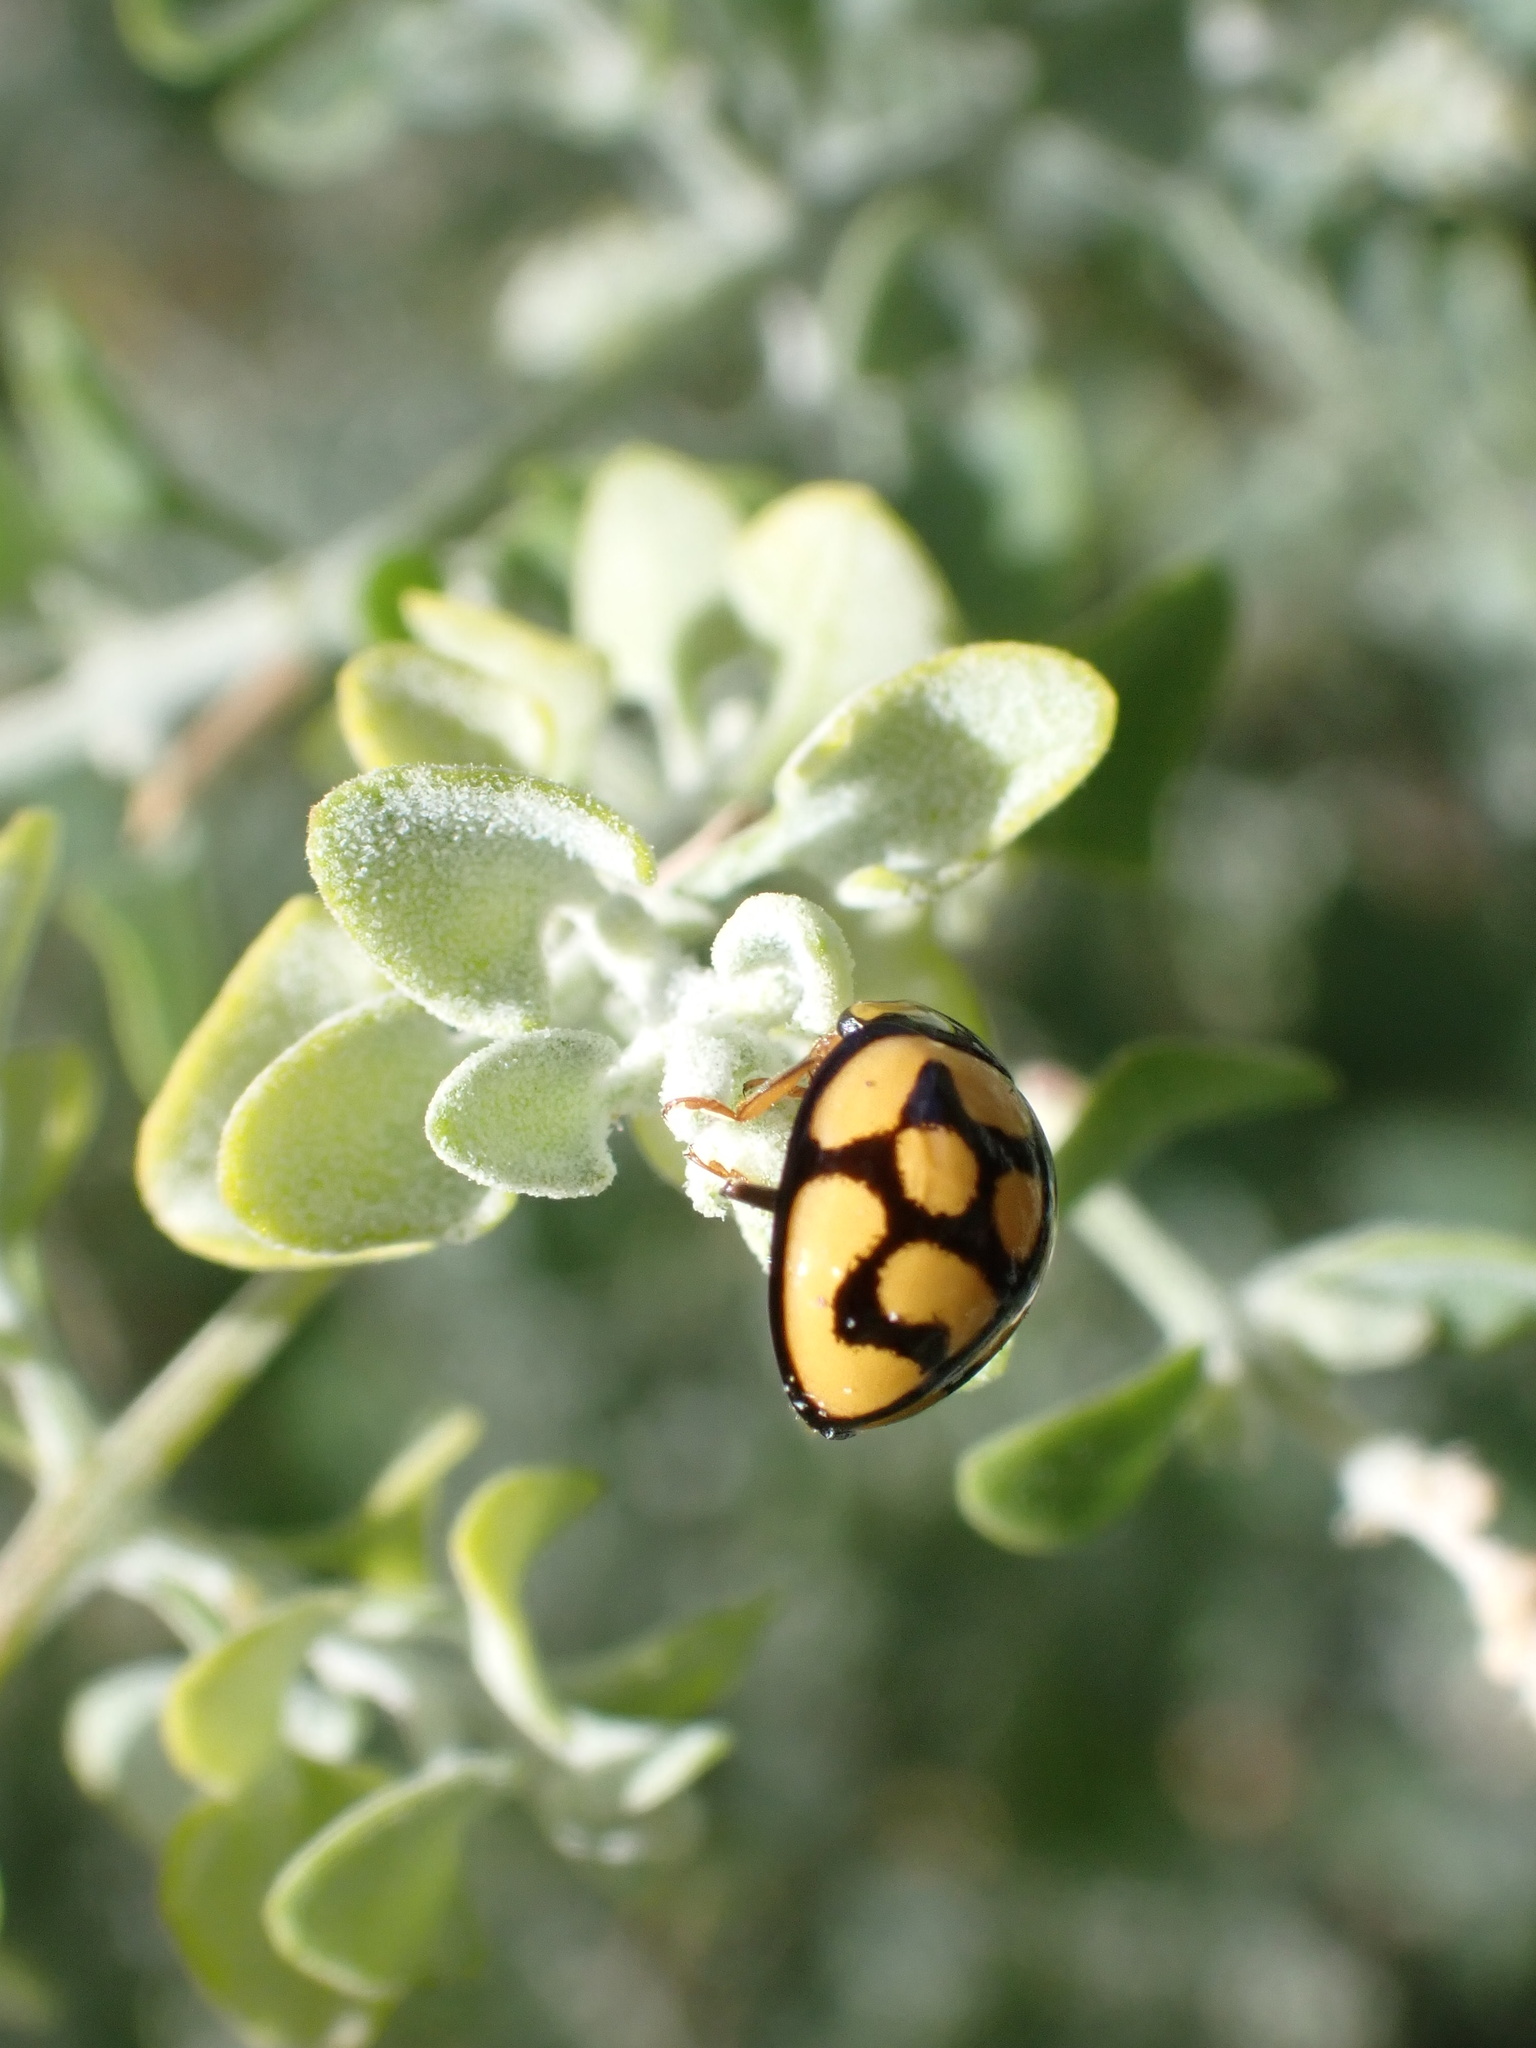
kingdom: Animalia
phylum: Arthropoda
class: Insecta
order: Coleoptera
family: Coccinellidae
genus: Cheilomenes
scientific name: Cheilomenes lunata
